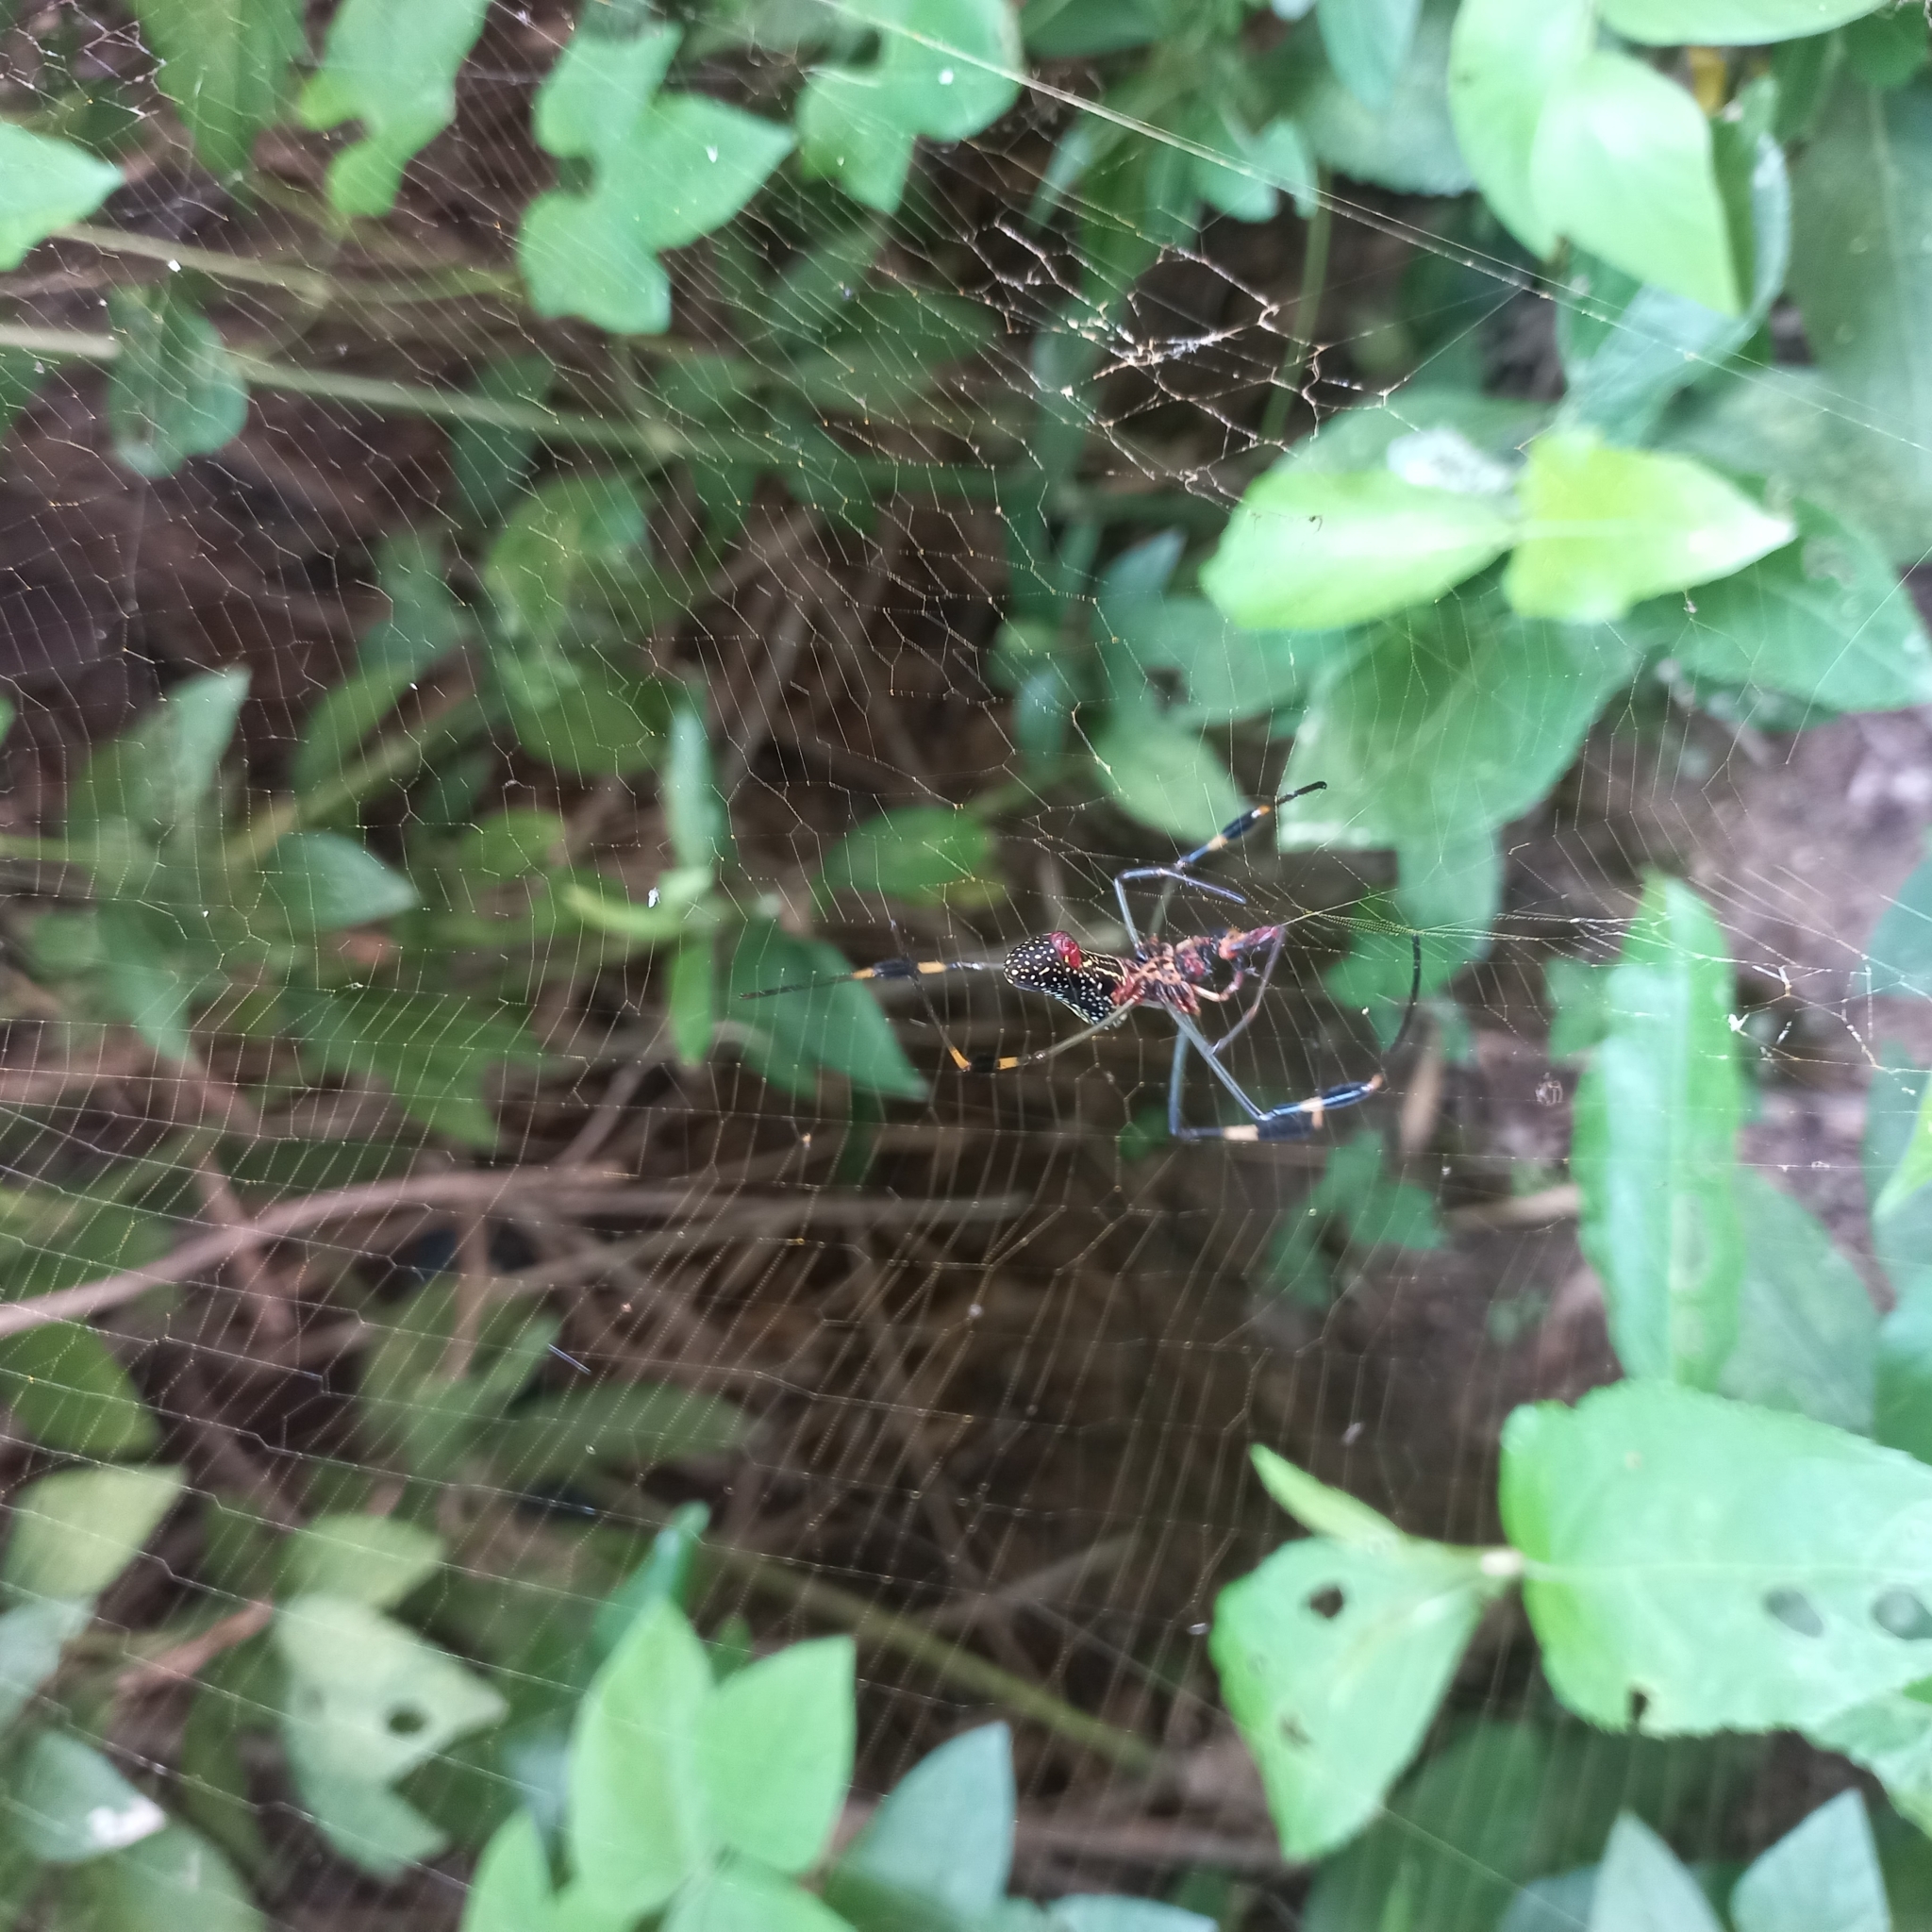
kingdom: Animalia
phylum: Arthropoda
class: Arachnida
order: Araneae
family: Araneidae
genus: Trichonephila
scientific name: Trichonephila clavipes
